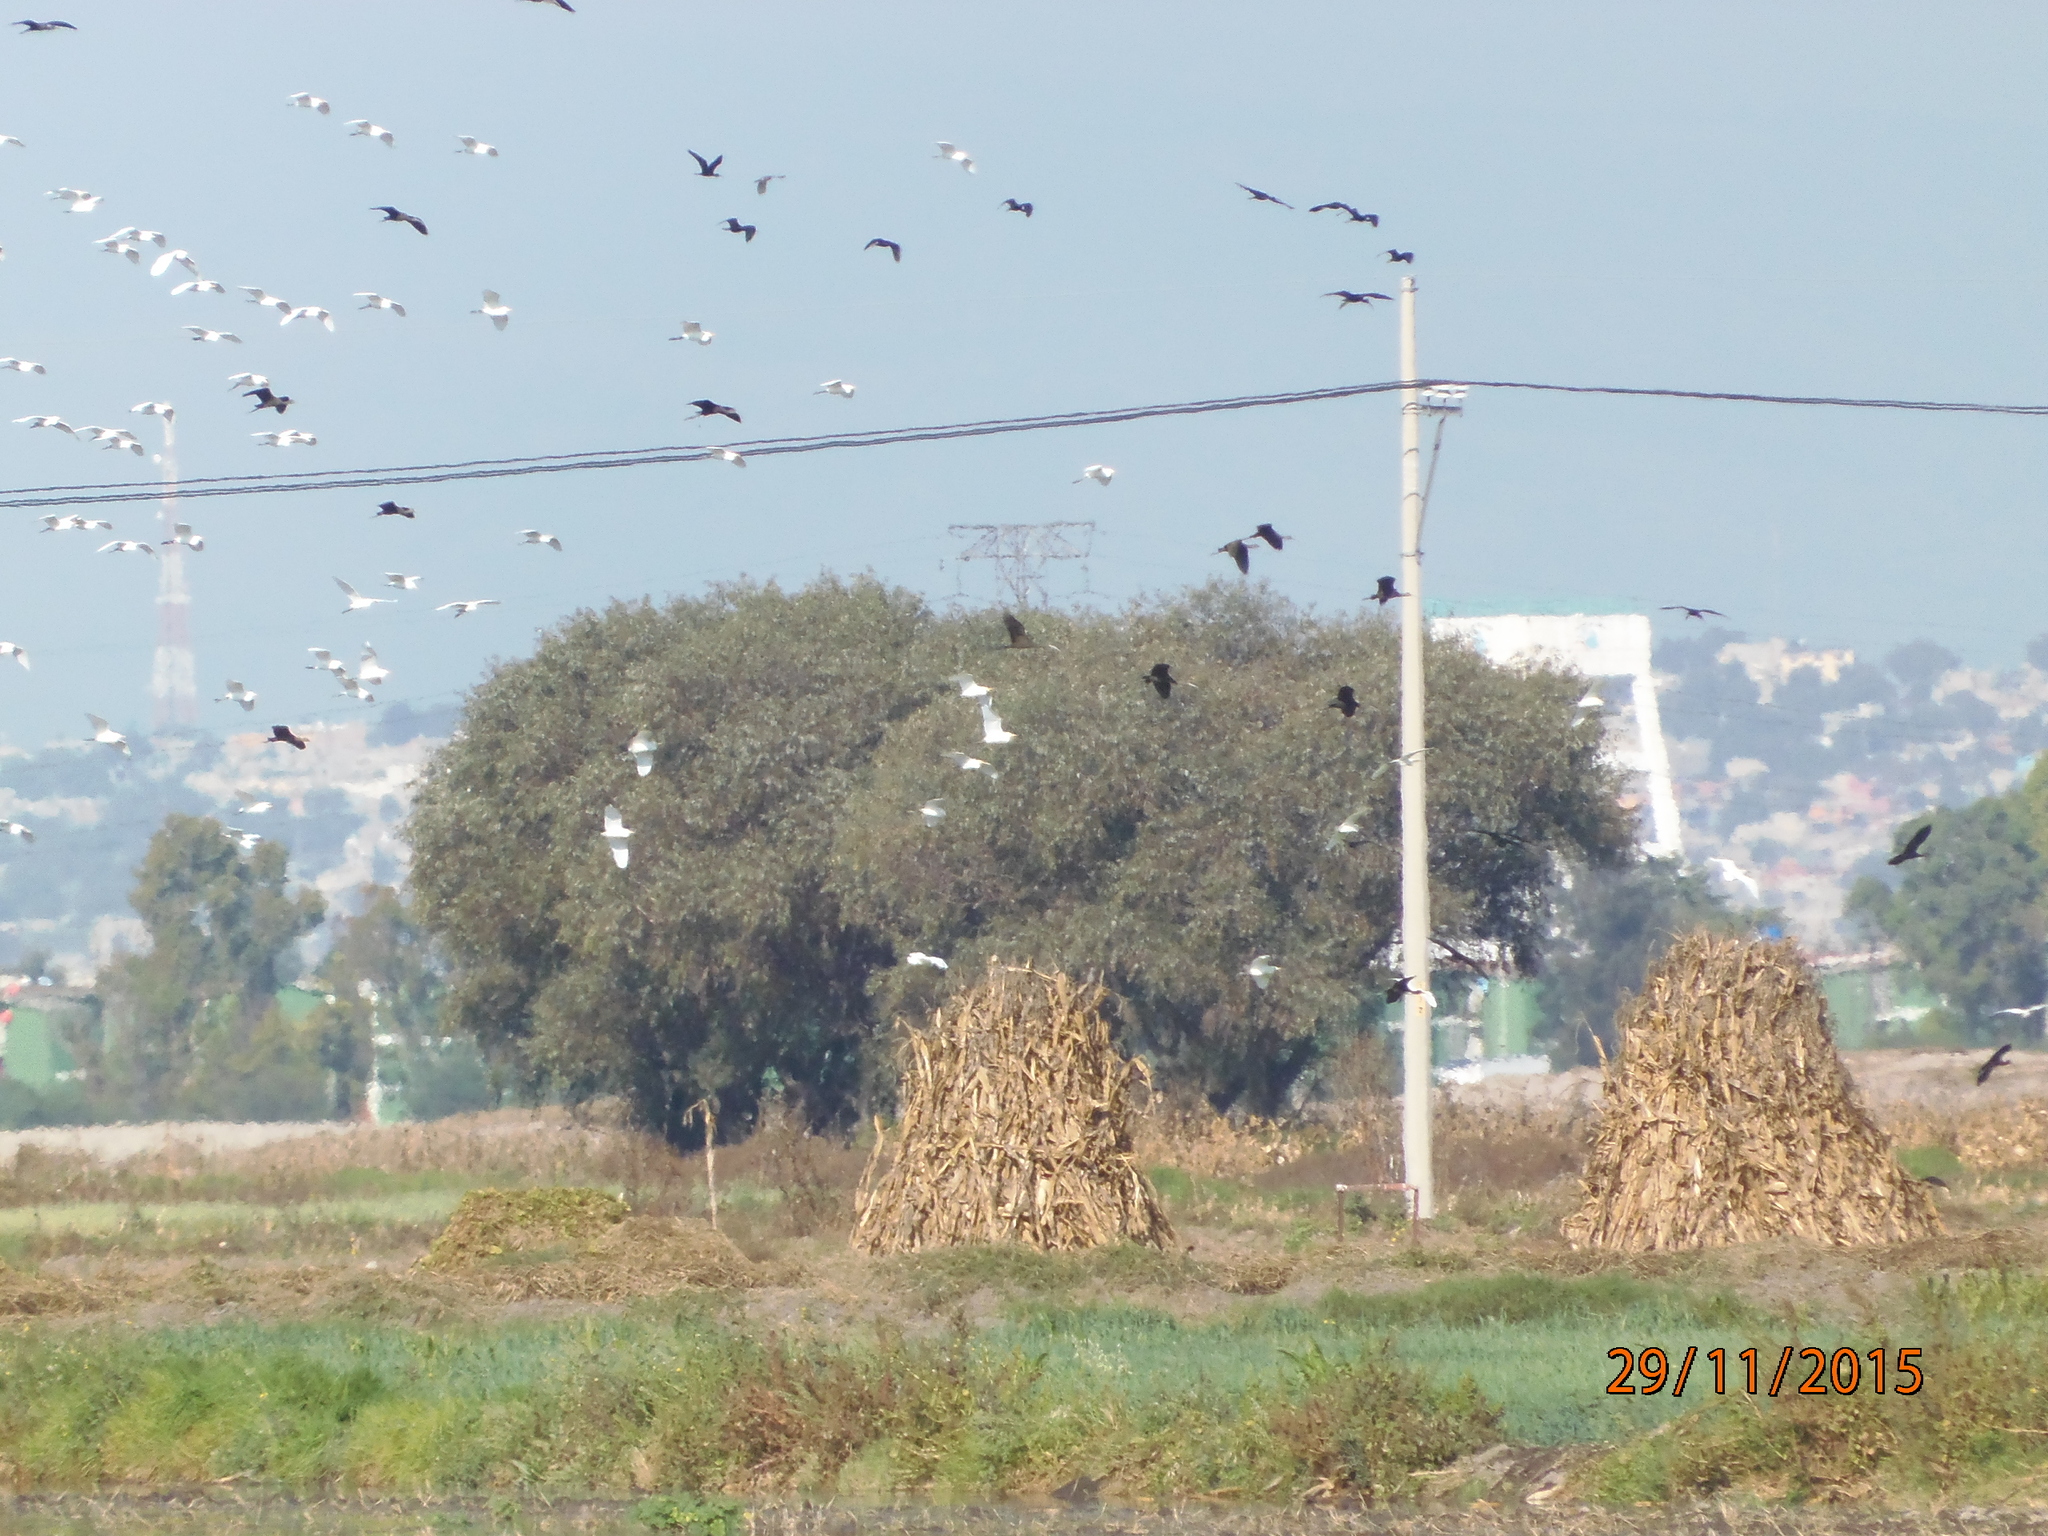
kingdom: Animalia
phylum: Chordata
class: Aves
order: Pelecaniformes
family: Threskiornithidae
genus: Plegadis
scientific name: Plegadis chihi
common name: White-faced ibis
